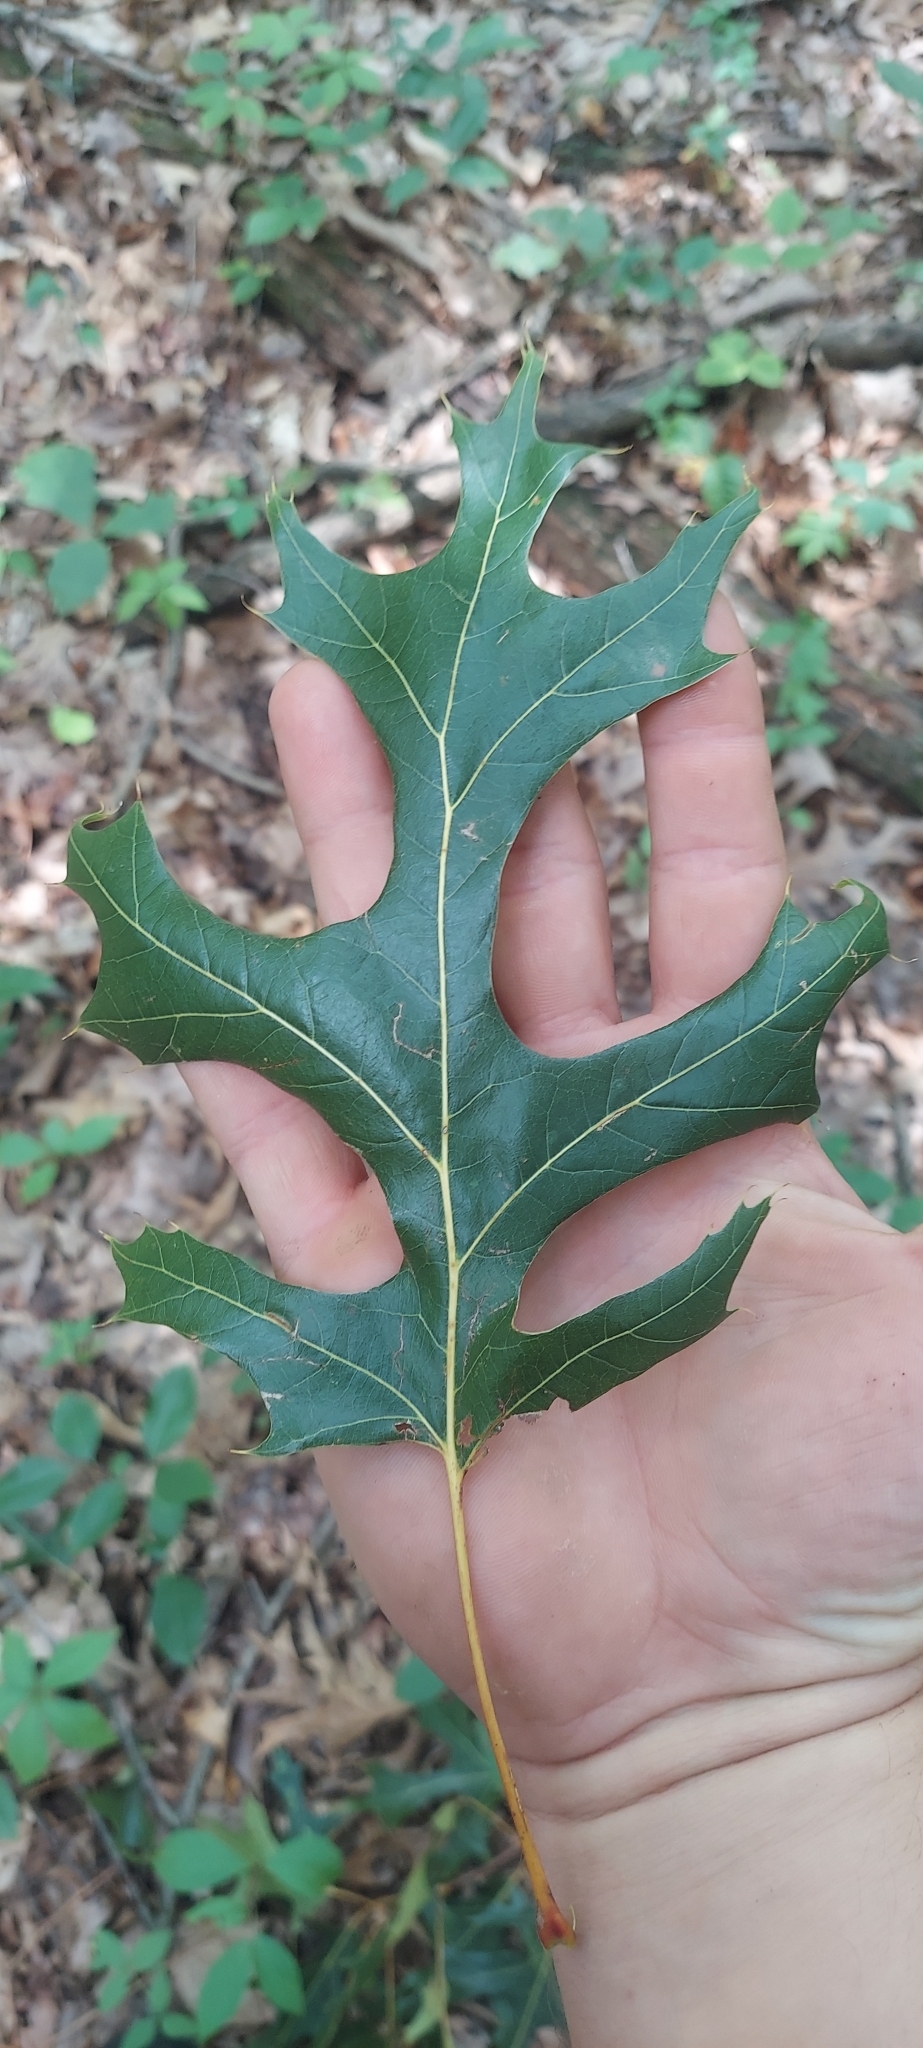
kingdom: Plantae
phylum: Tracheophyta
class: Magnoliopsida
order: Fagales
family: Fagaceae
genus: Quercus
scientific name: Quercus palustris
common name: Pin oak
